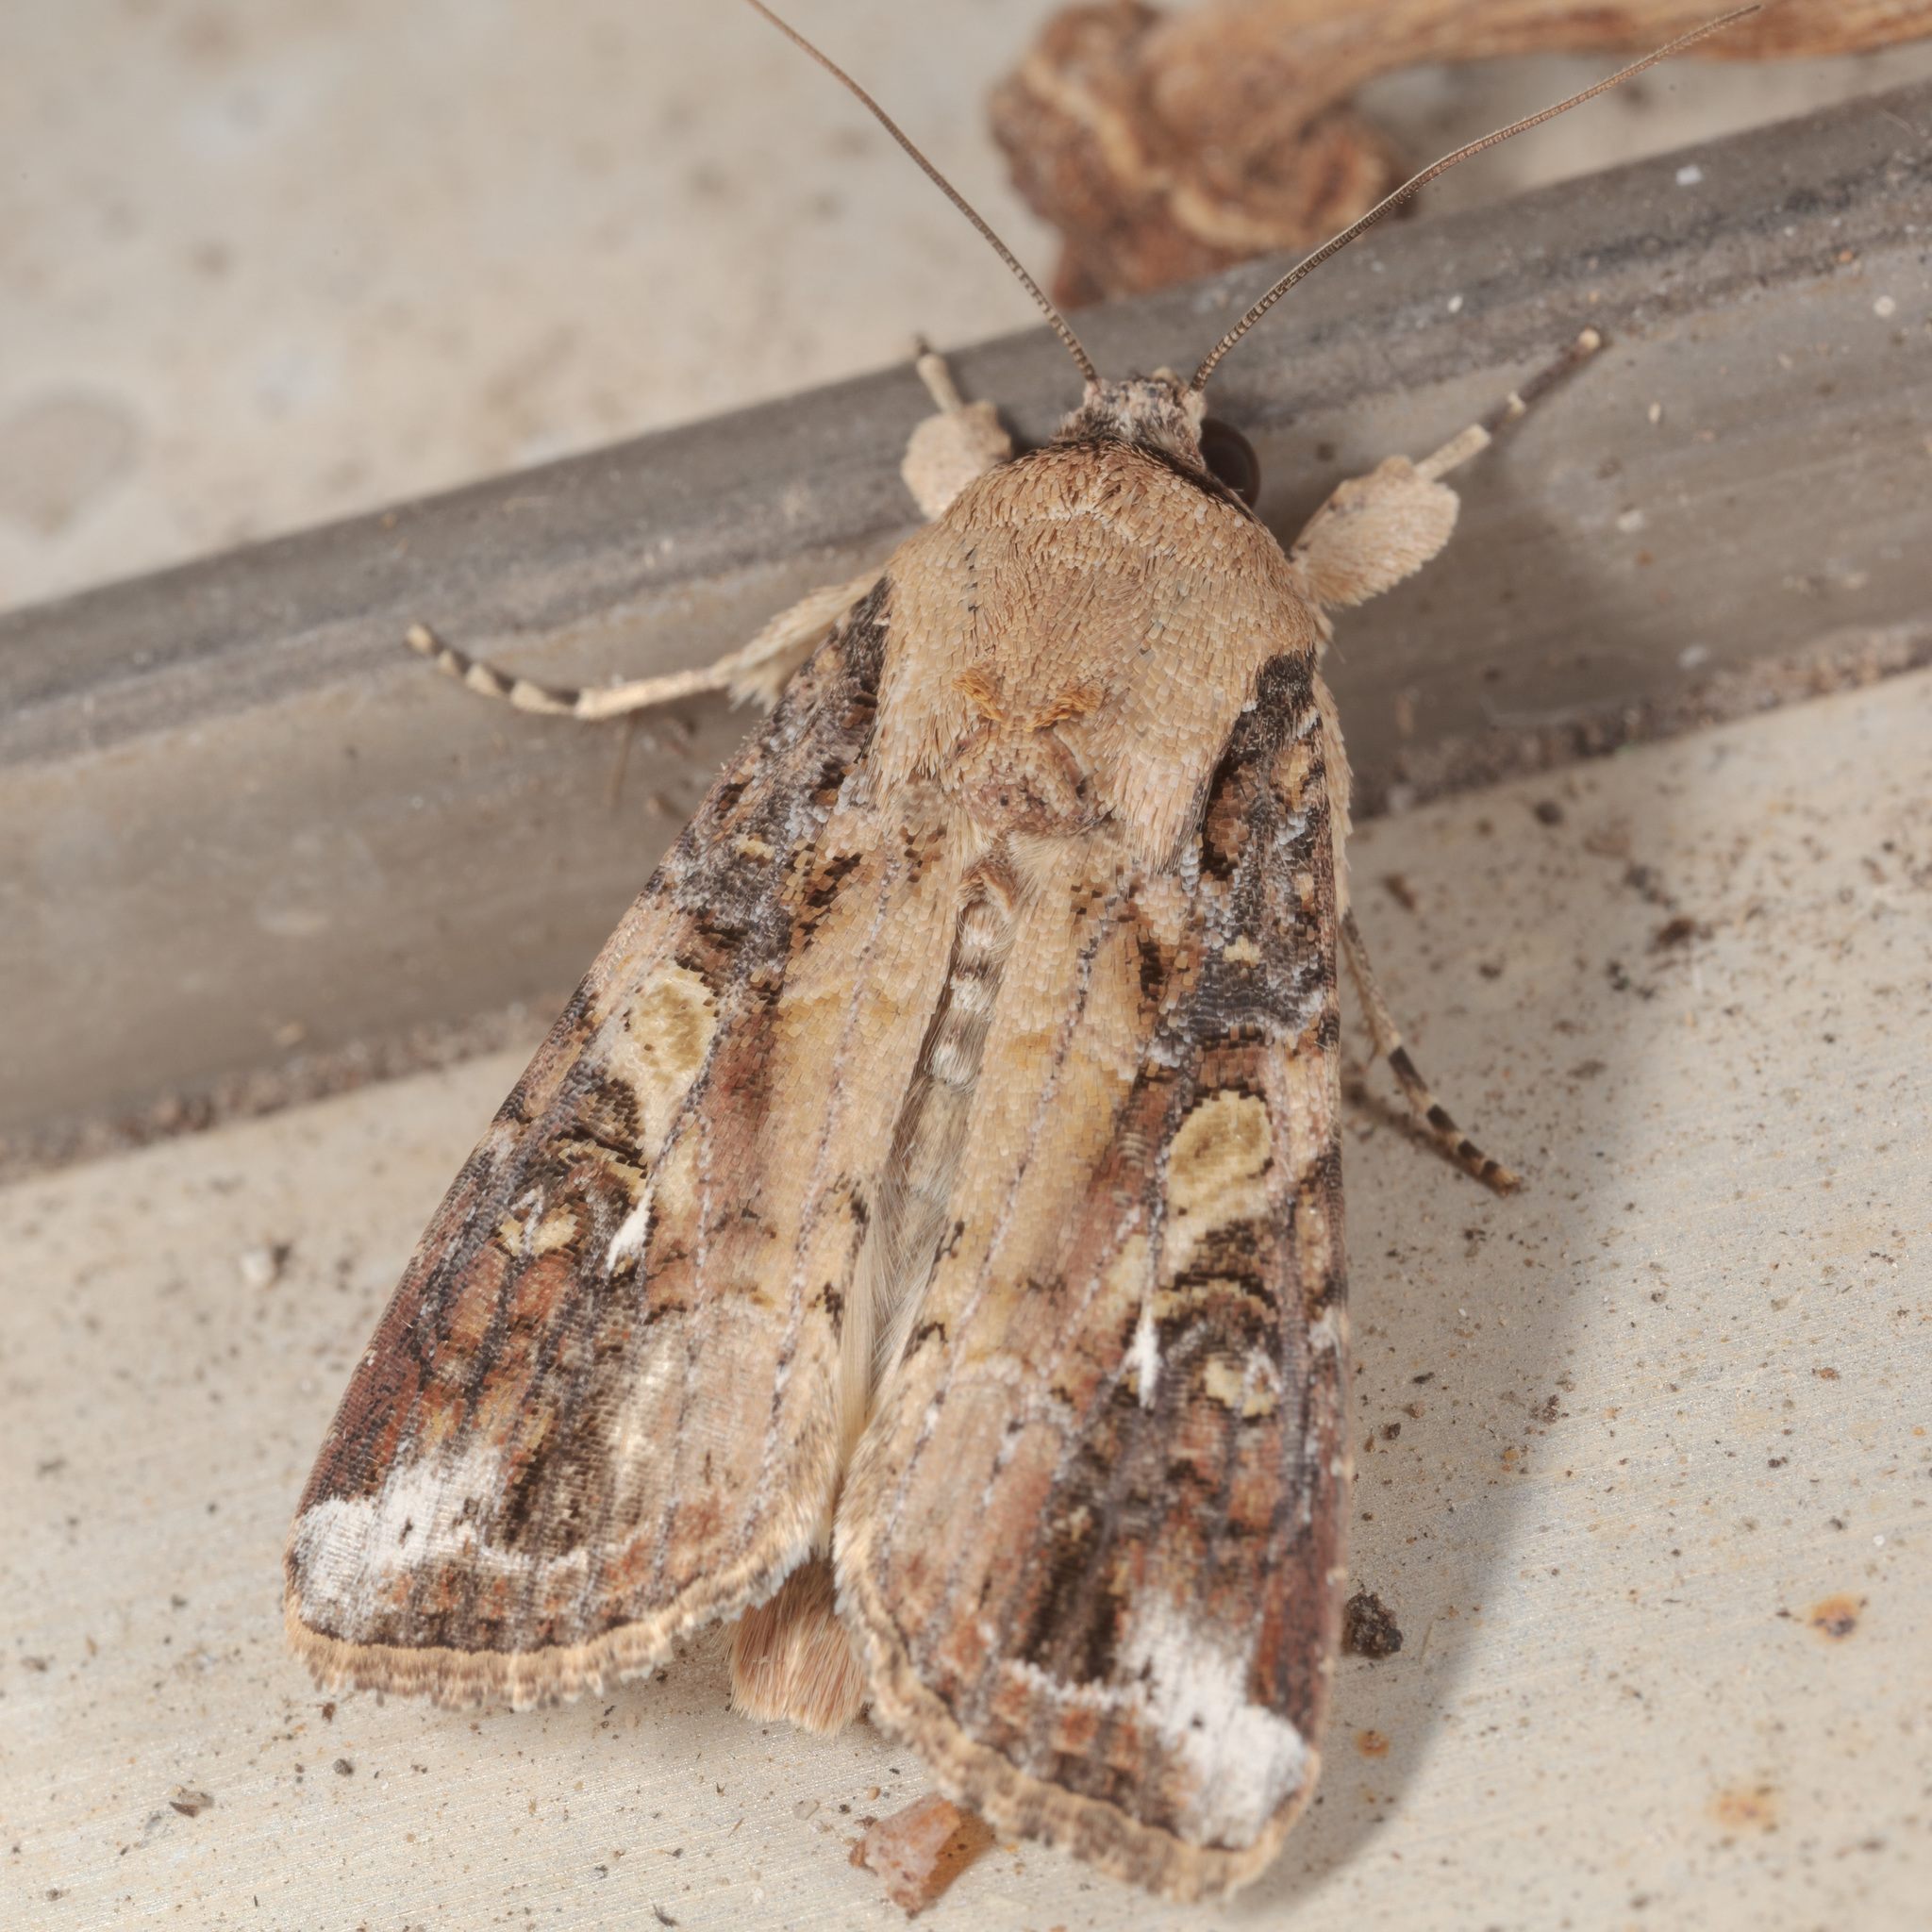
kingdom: Animalia
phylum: Arthropoda
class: Insecta
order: Lepidoptera
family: Noctuidae
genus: Spodoptera
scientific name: Spodoptera frugiperda
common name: Fall armyworm
